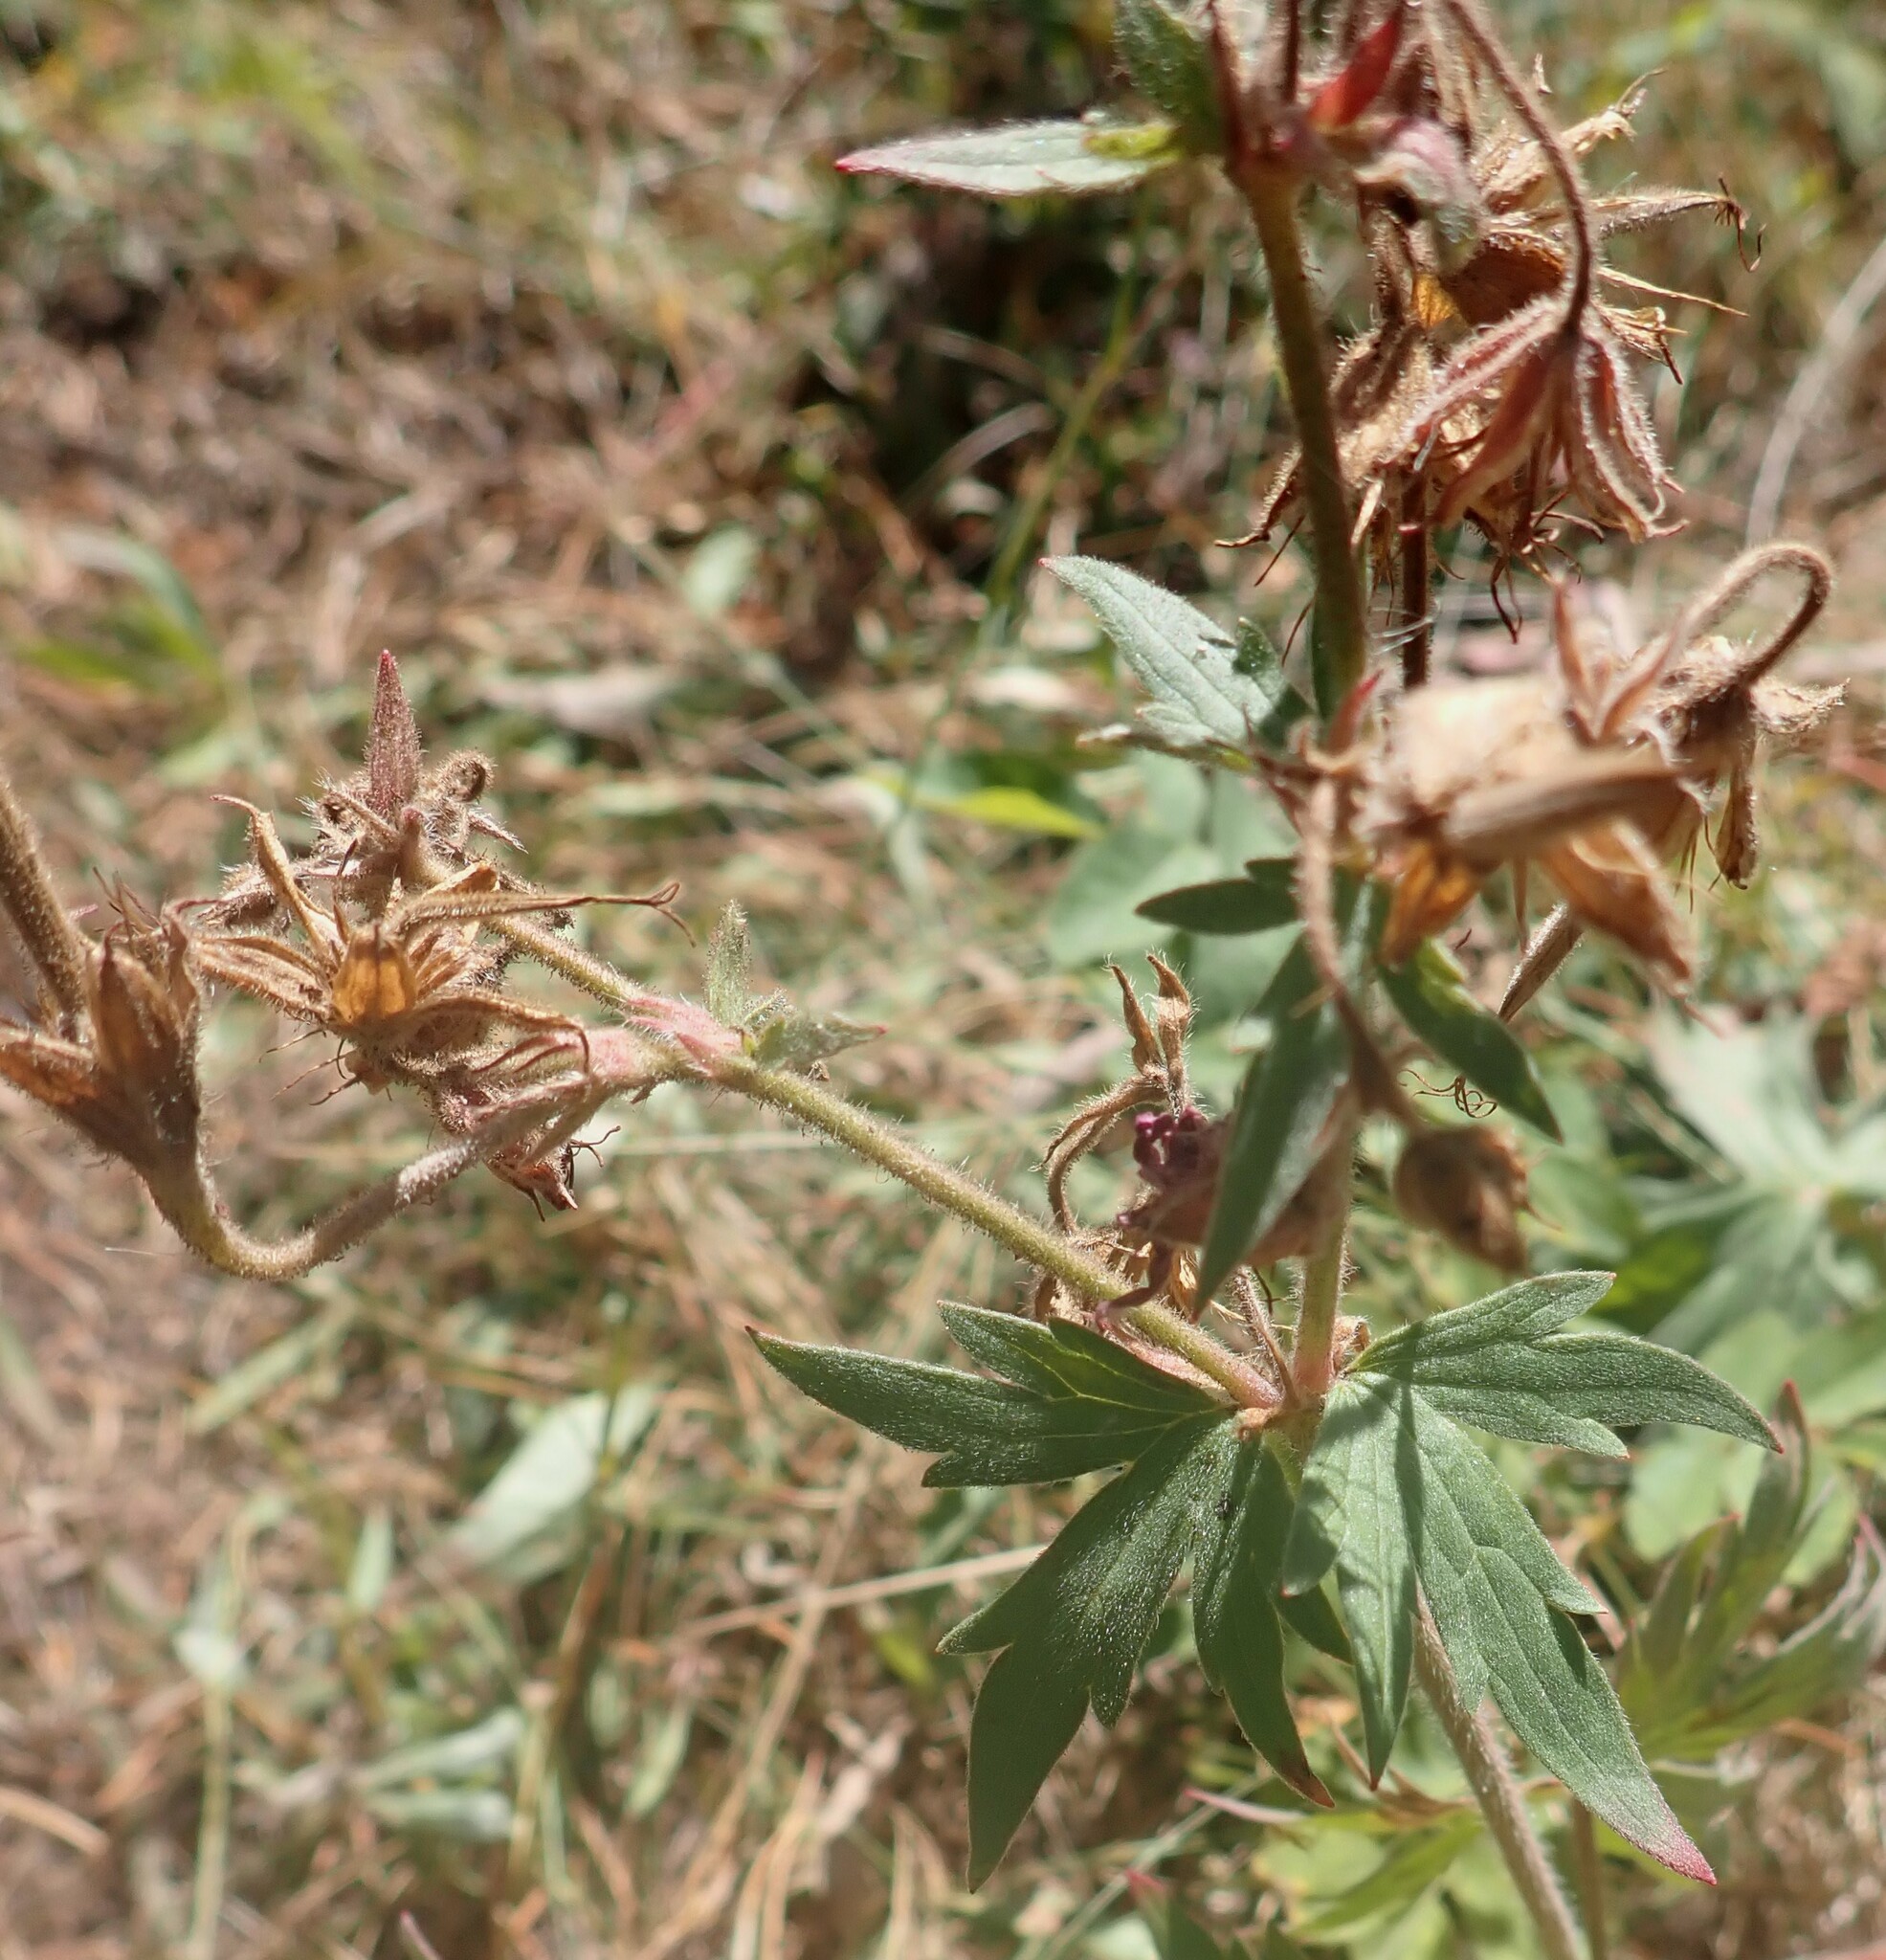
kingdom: Plantae
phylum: Tracheophyta
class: Magnoliopsida
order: Geraniales
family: Geraniaceae
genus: Geranium
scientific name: Geranium viscosissimum
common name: Purple geranium
